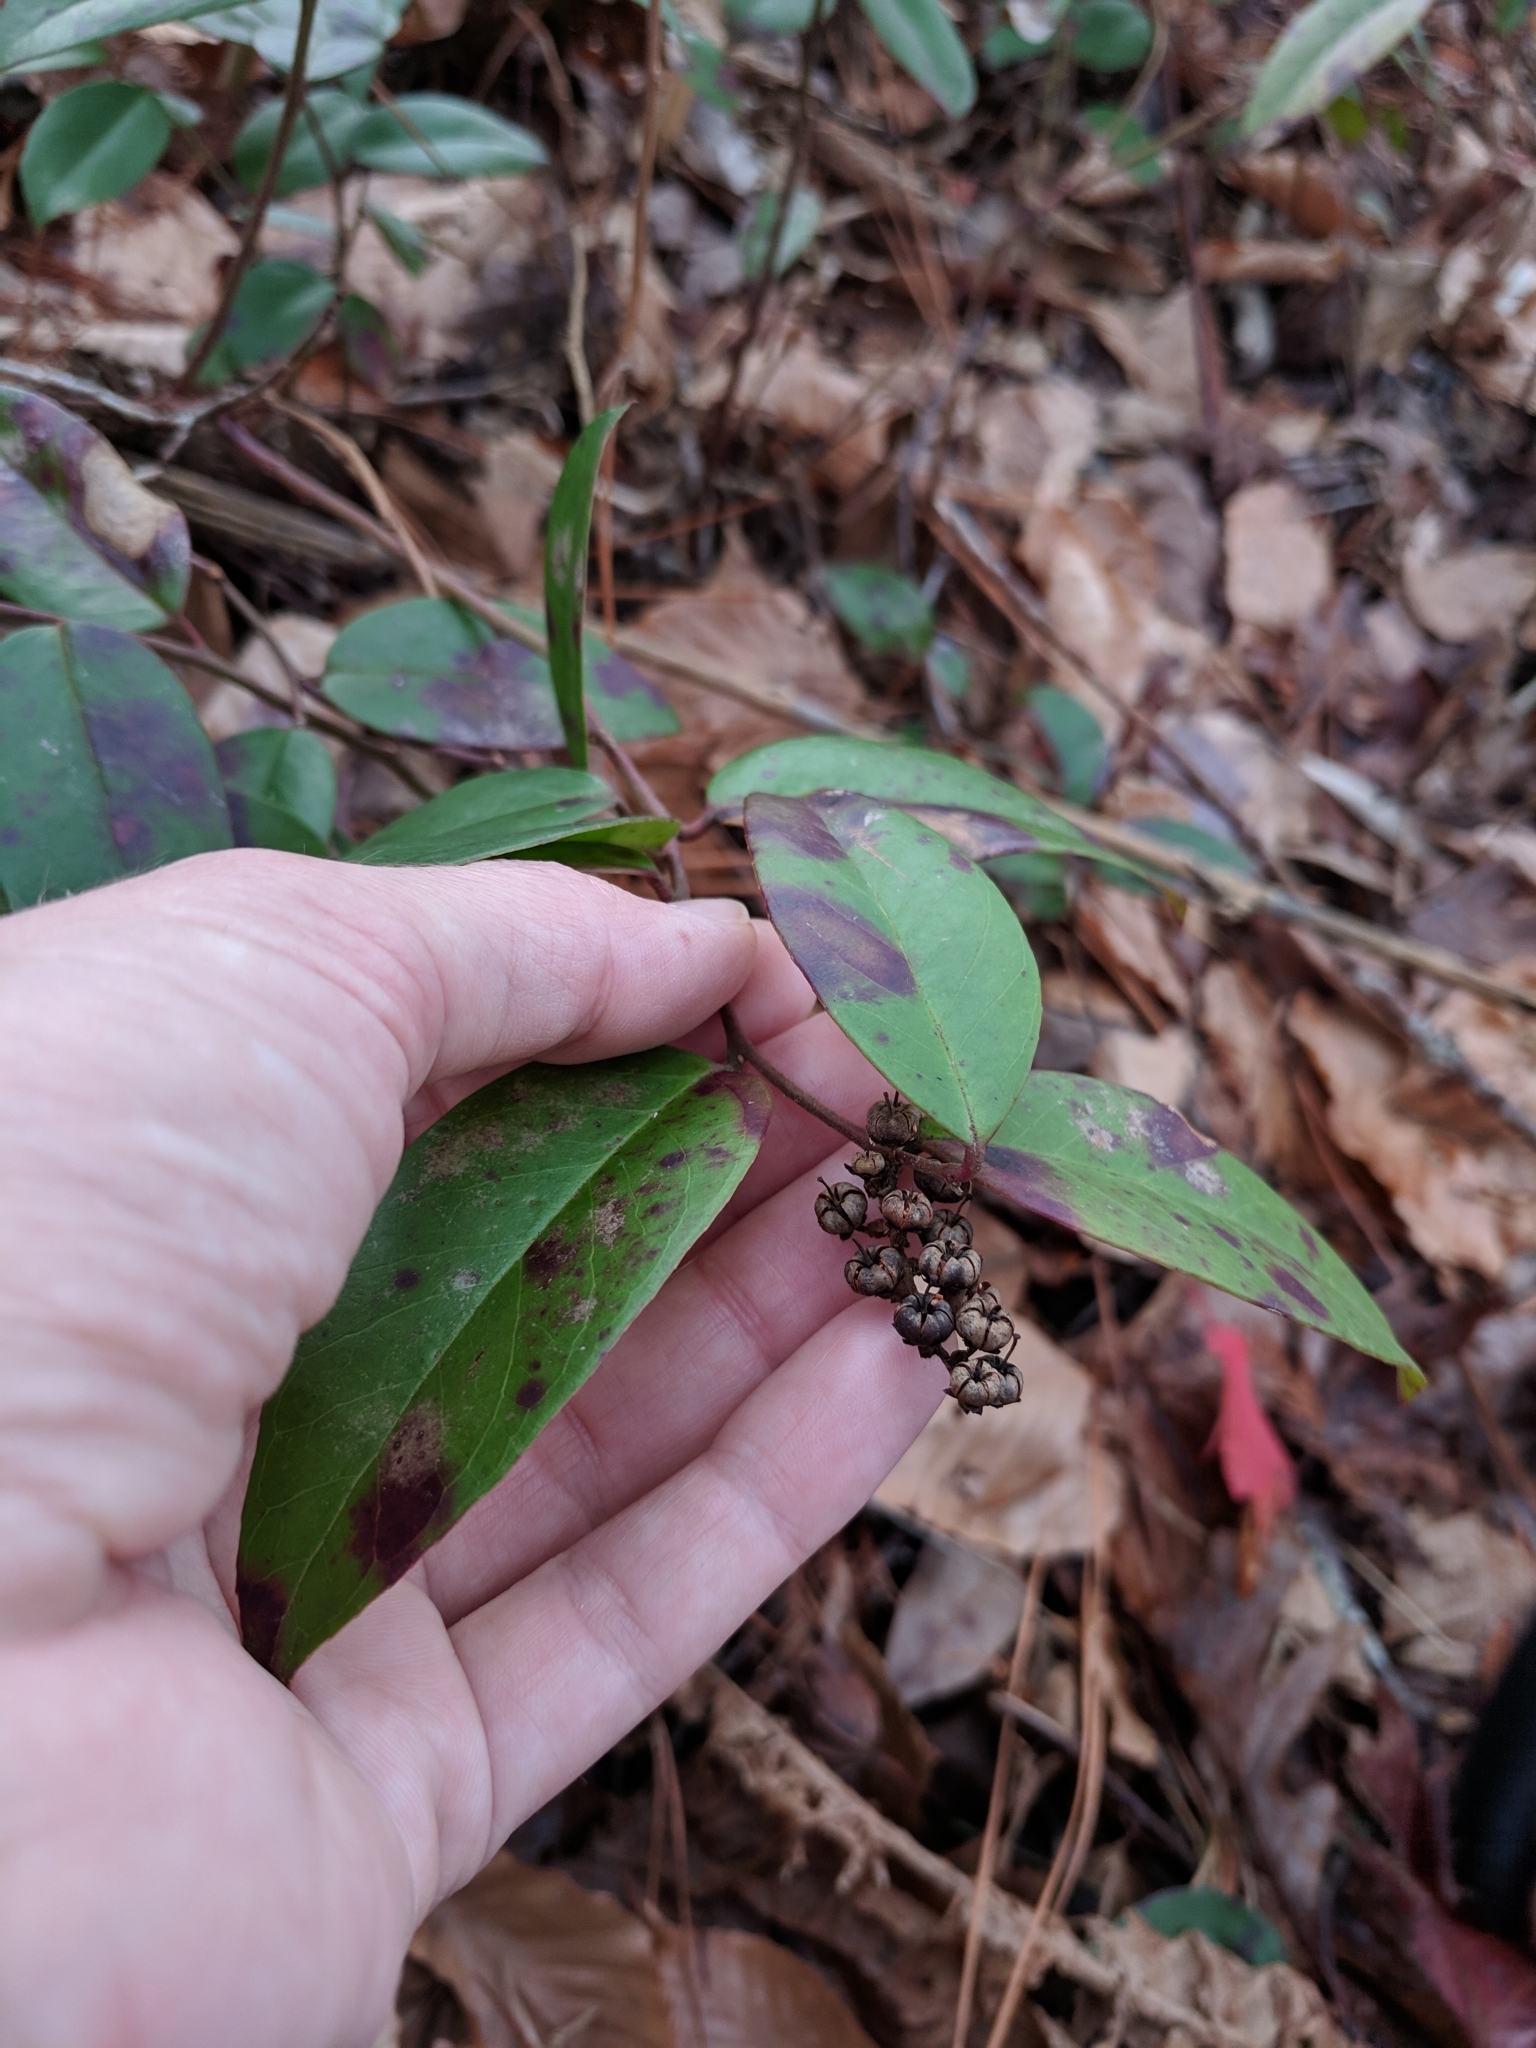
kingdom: Plantae
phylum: Tracheophyta
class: Magnoliopsida
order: Ericales
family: Ericaceae
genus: Leucothoe
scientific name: Leucothoe axillaris
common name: Leucothoe
